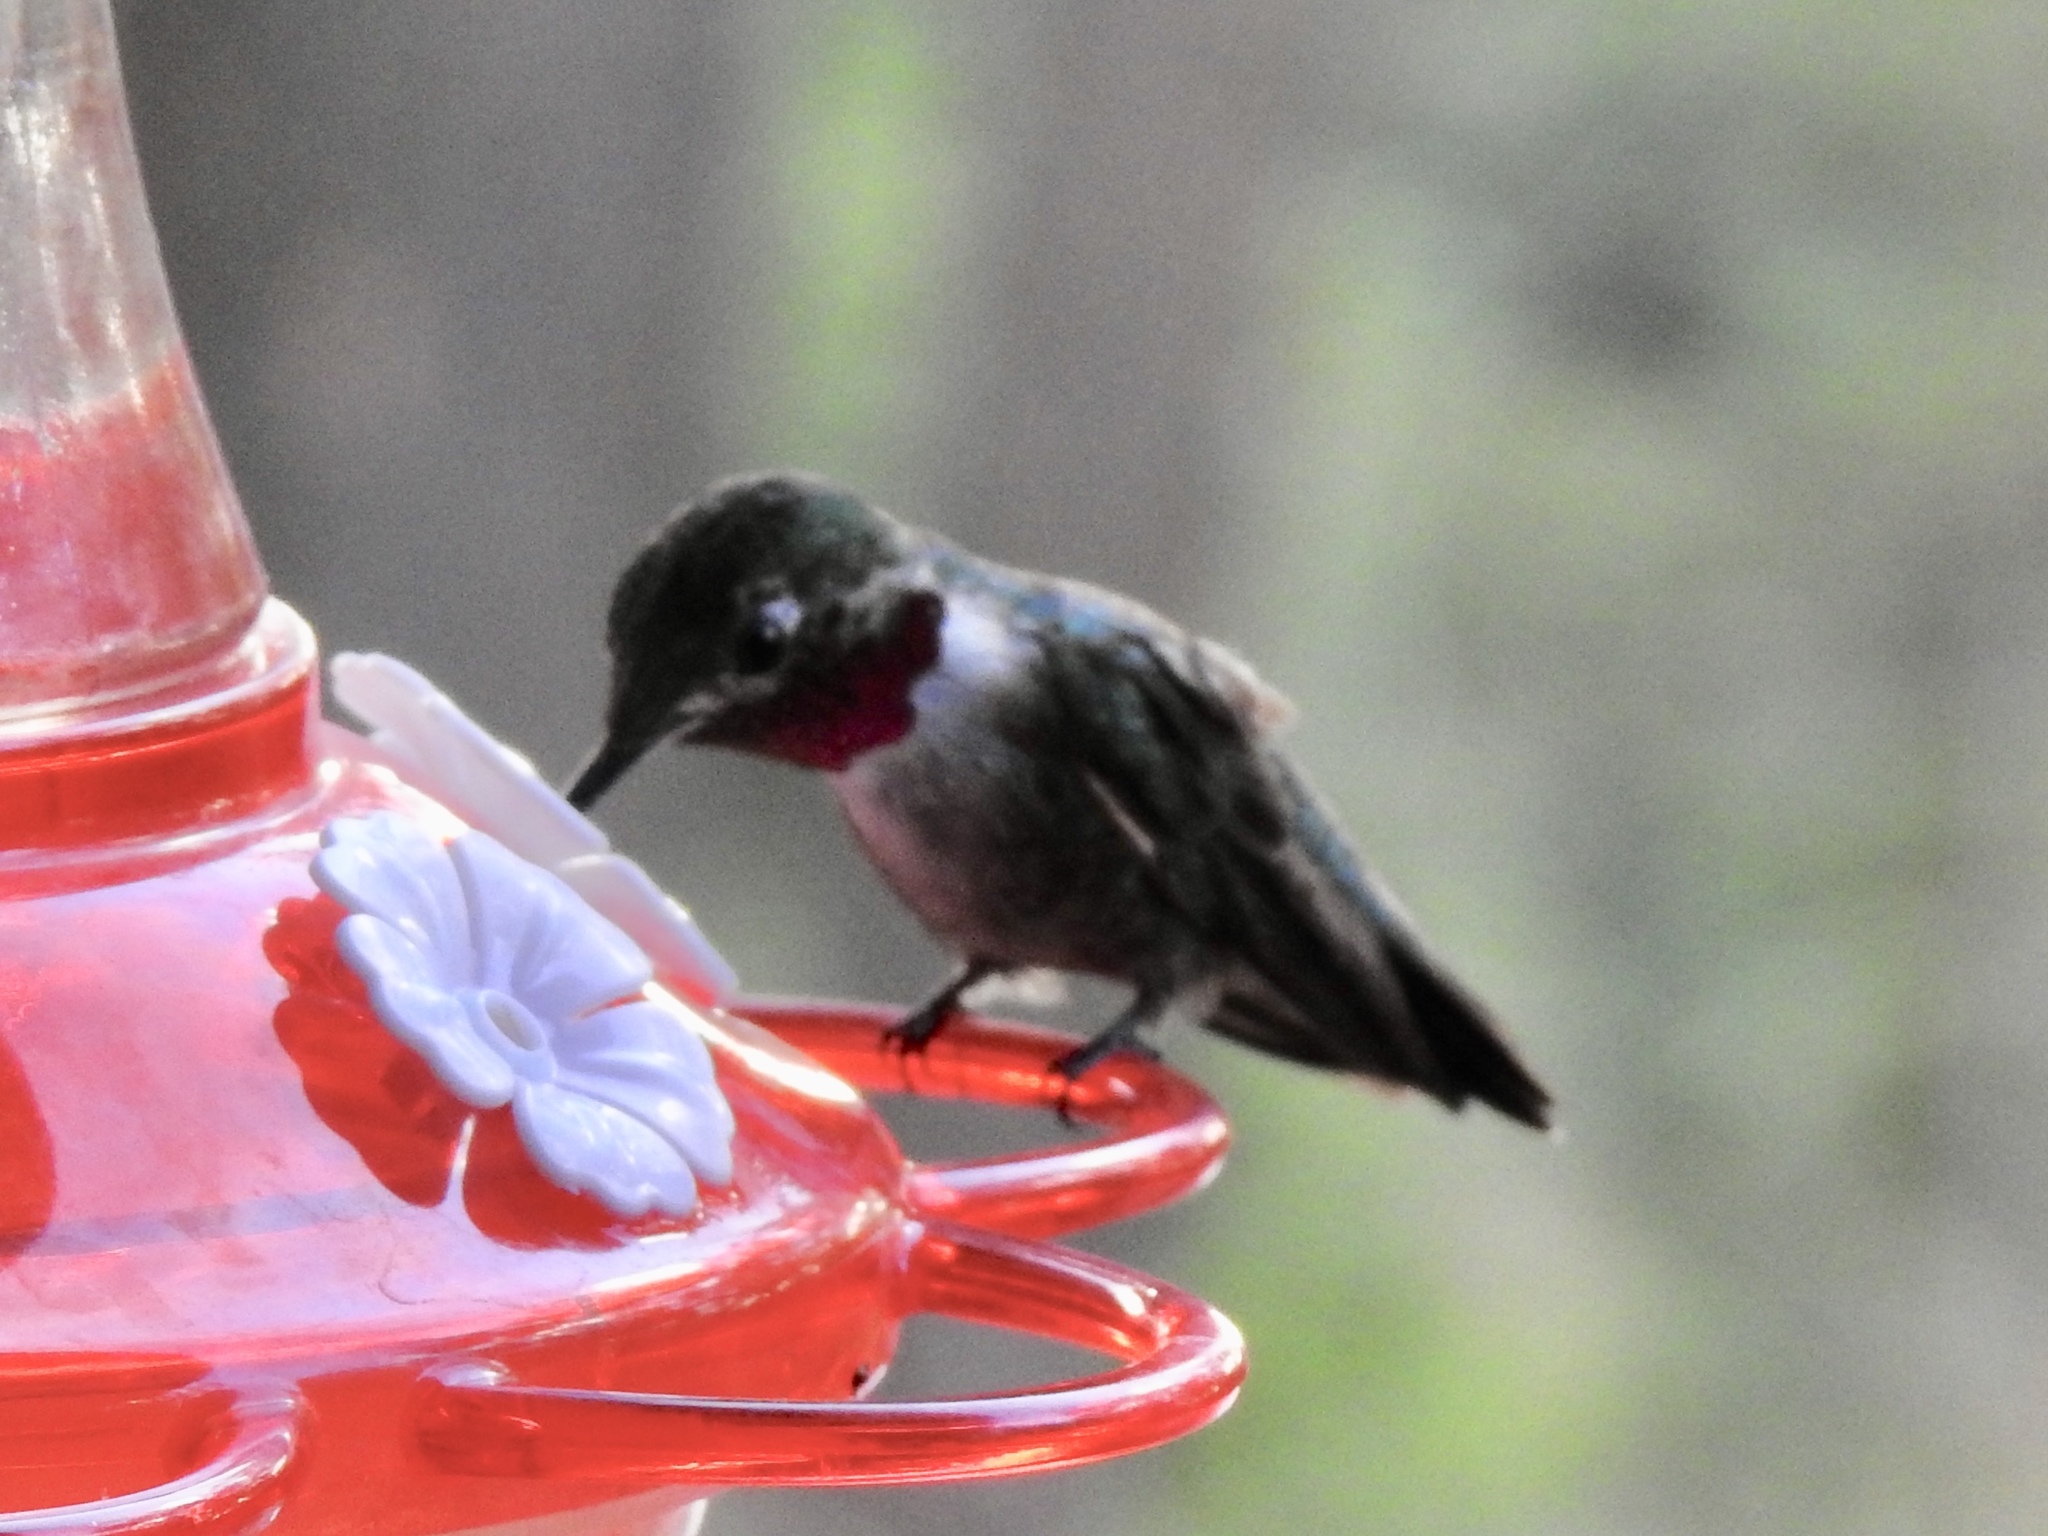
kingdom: Animalia
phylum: Chordata
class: Aves
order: Apodiformes
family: Trochilidae
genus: Selasphorus
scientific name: Selasphorus platycercus
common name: Broad-tailed hummingbird
